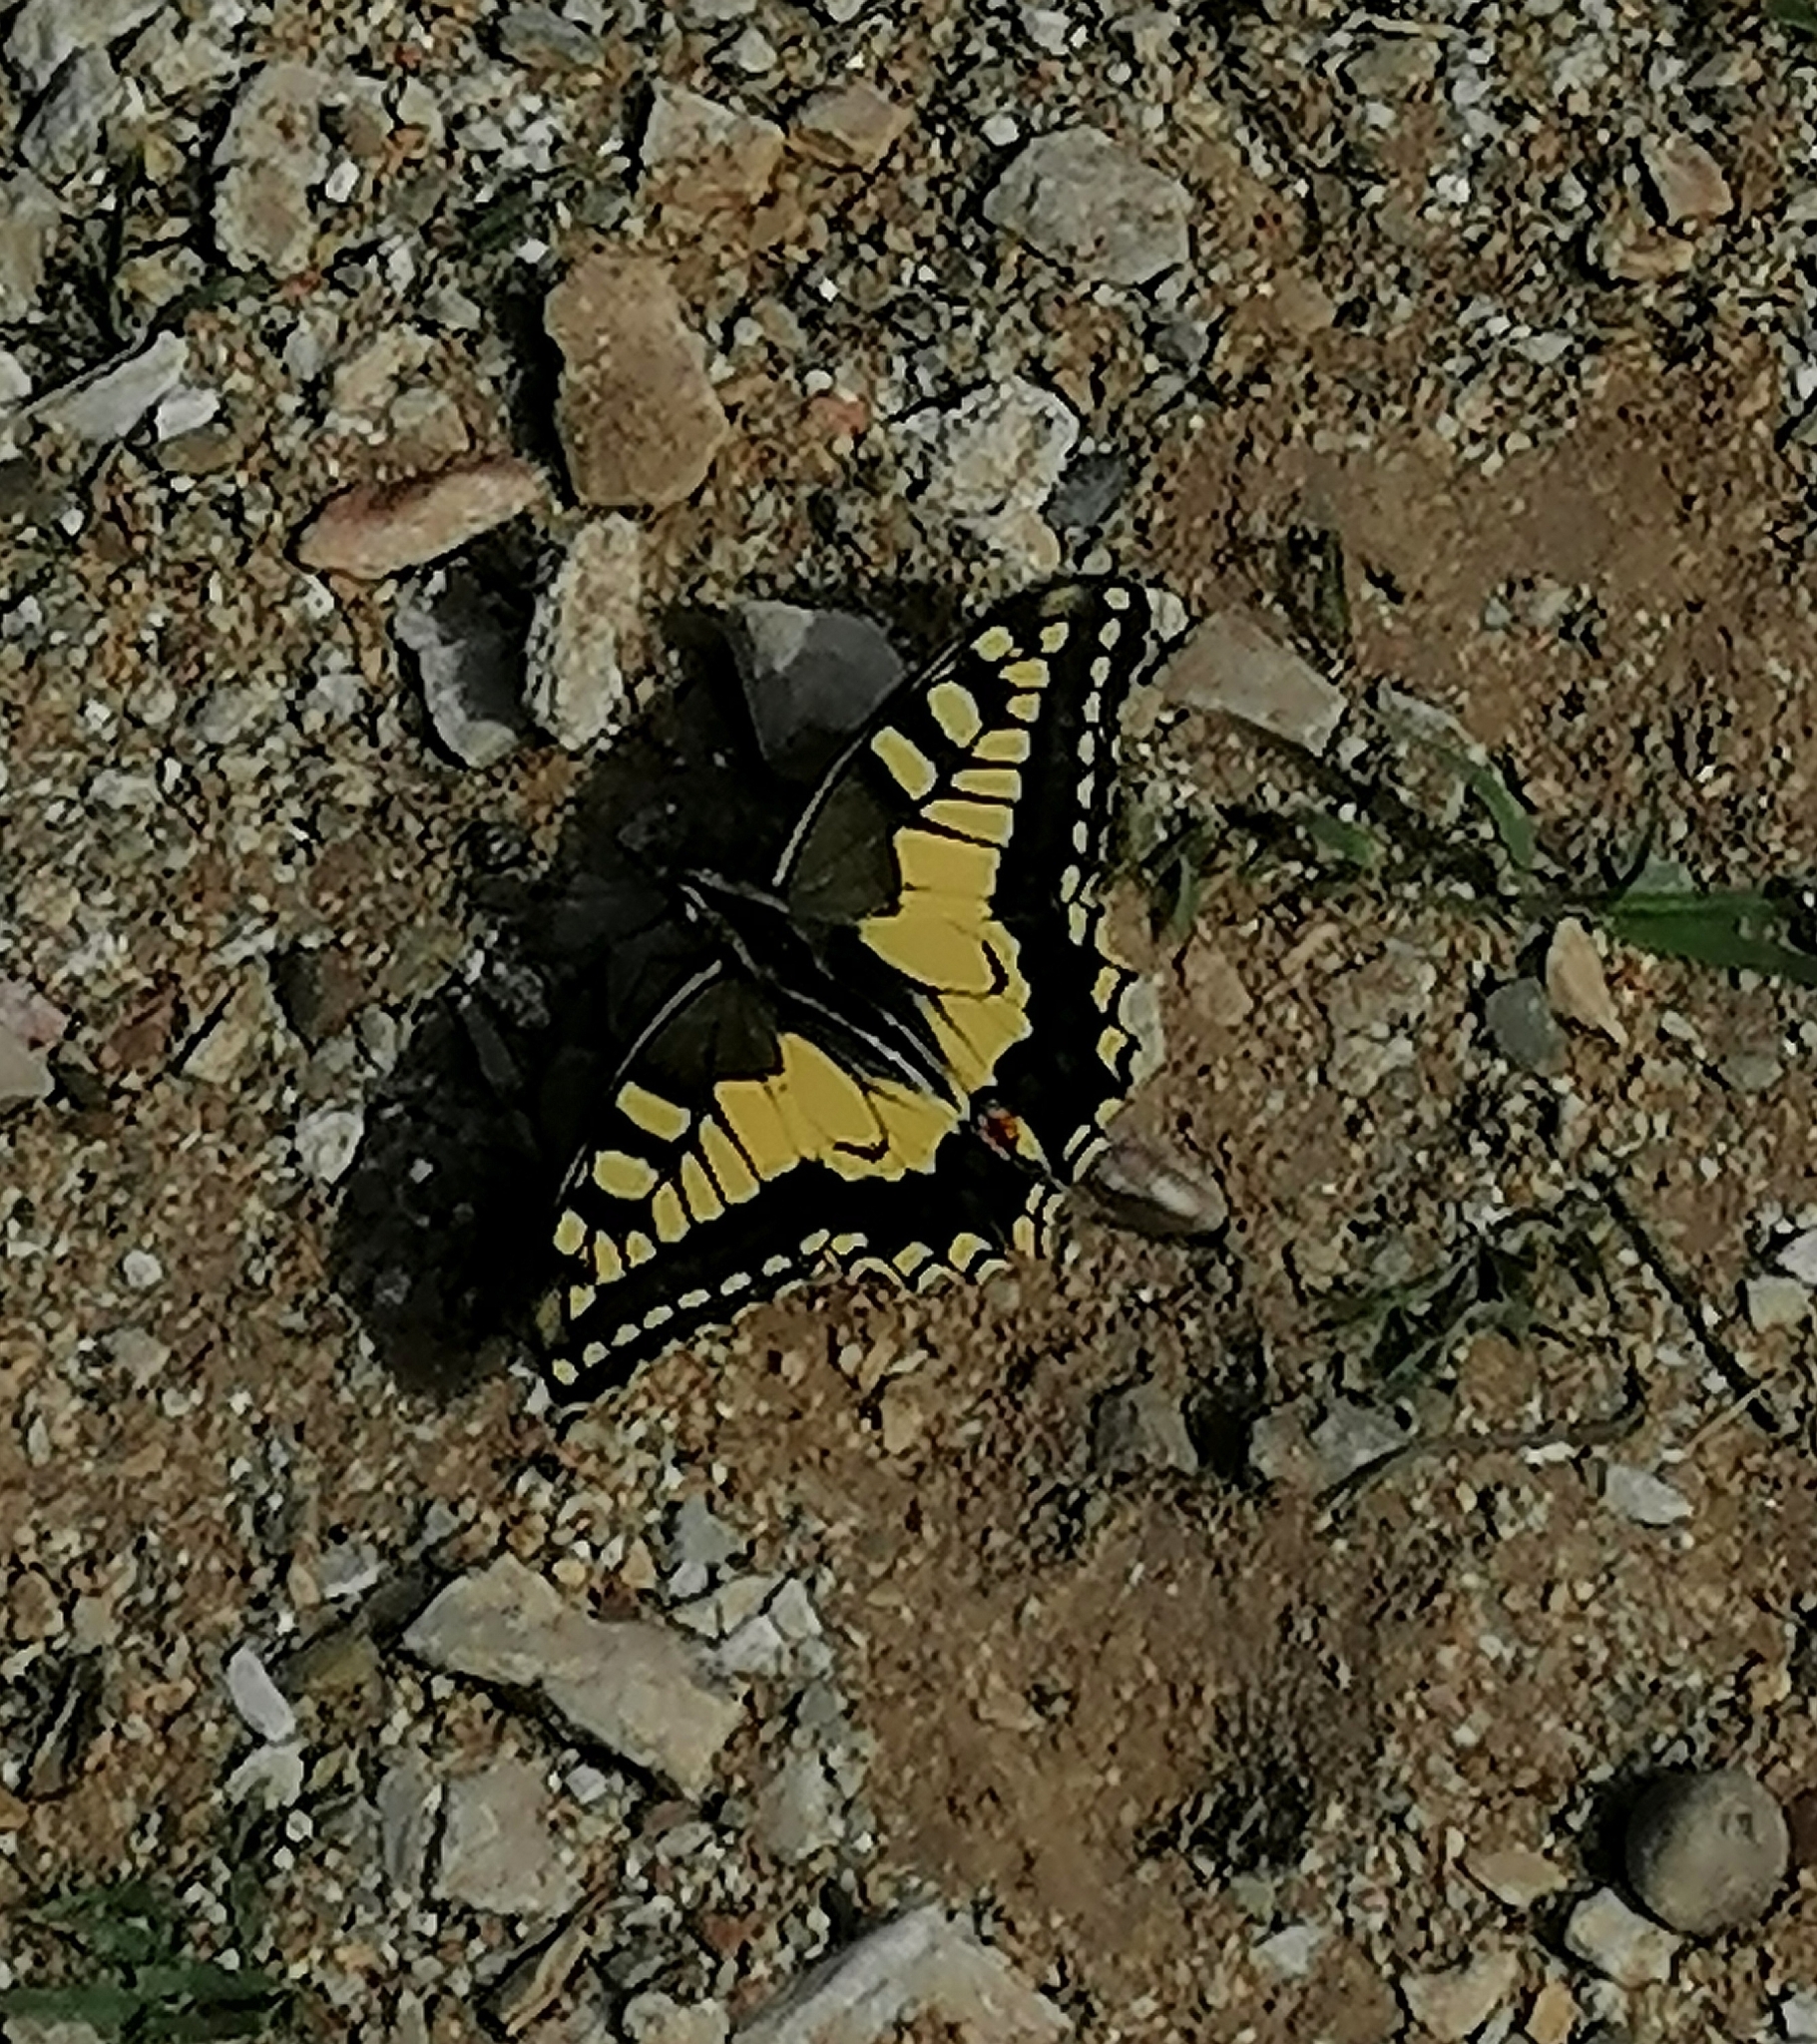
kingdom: Animalia
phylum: Arthropoda
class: Insecta
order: Lepidoptera
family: Papilionidae
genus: Papilio
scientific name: Papilio machaon
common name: Swallowtail
